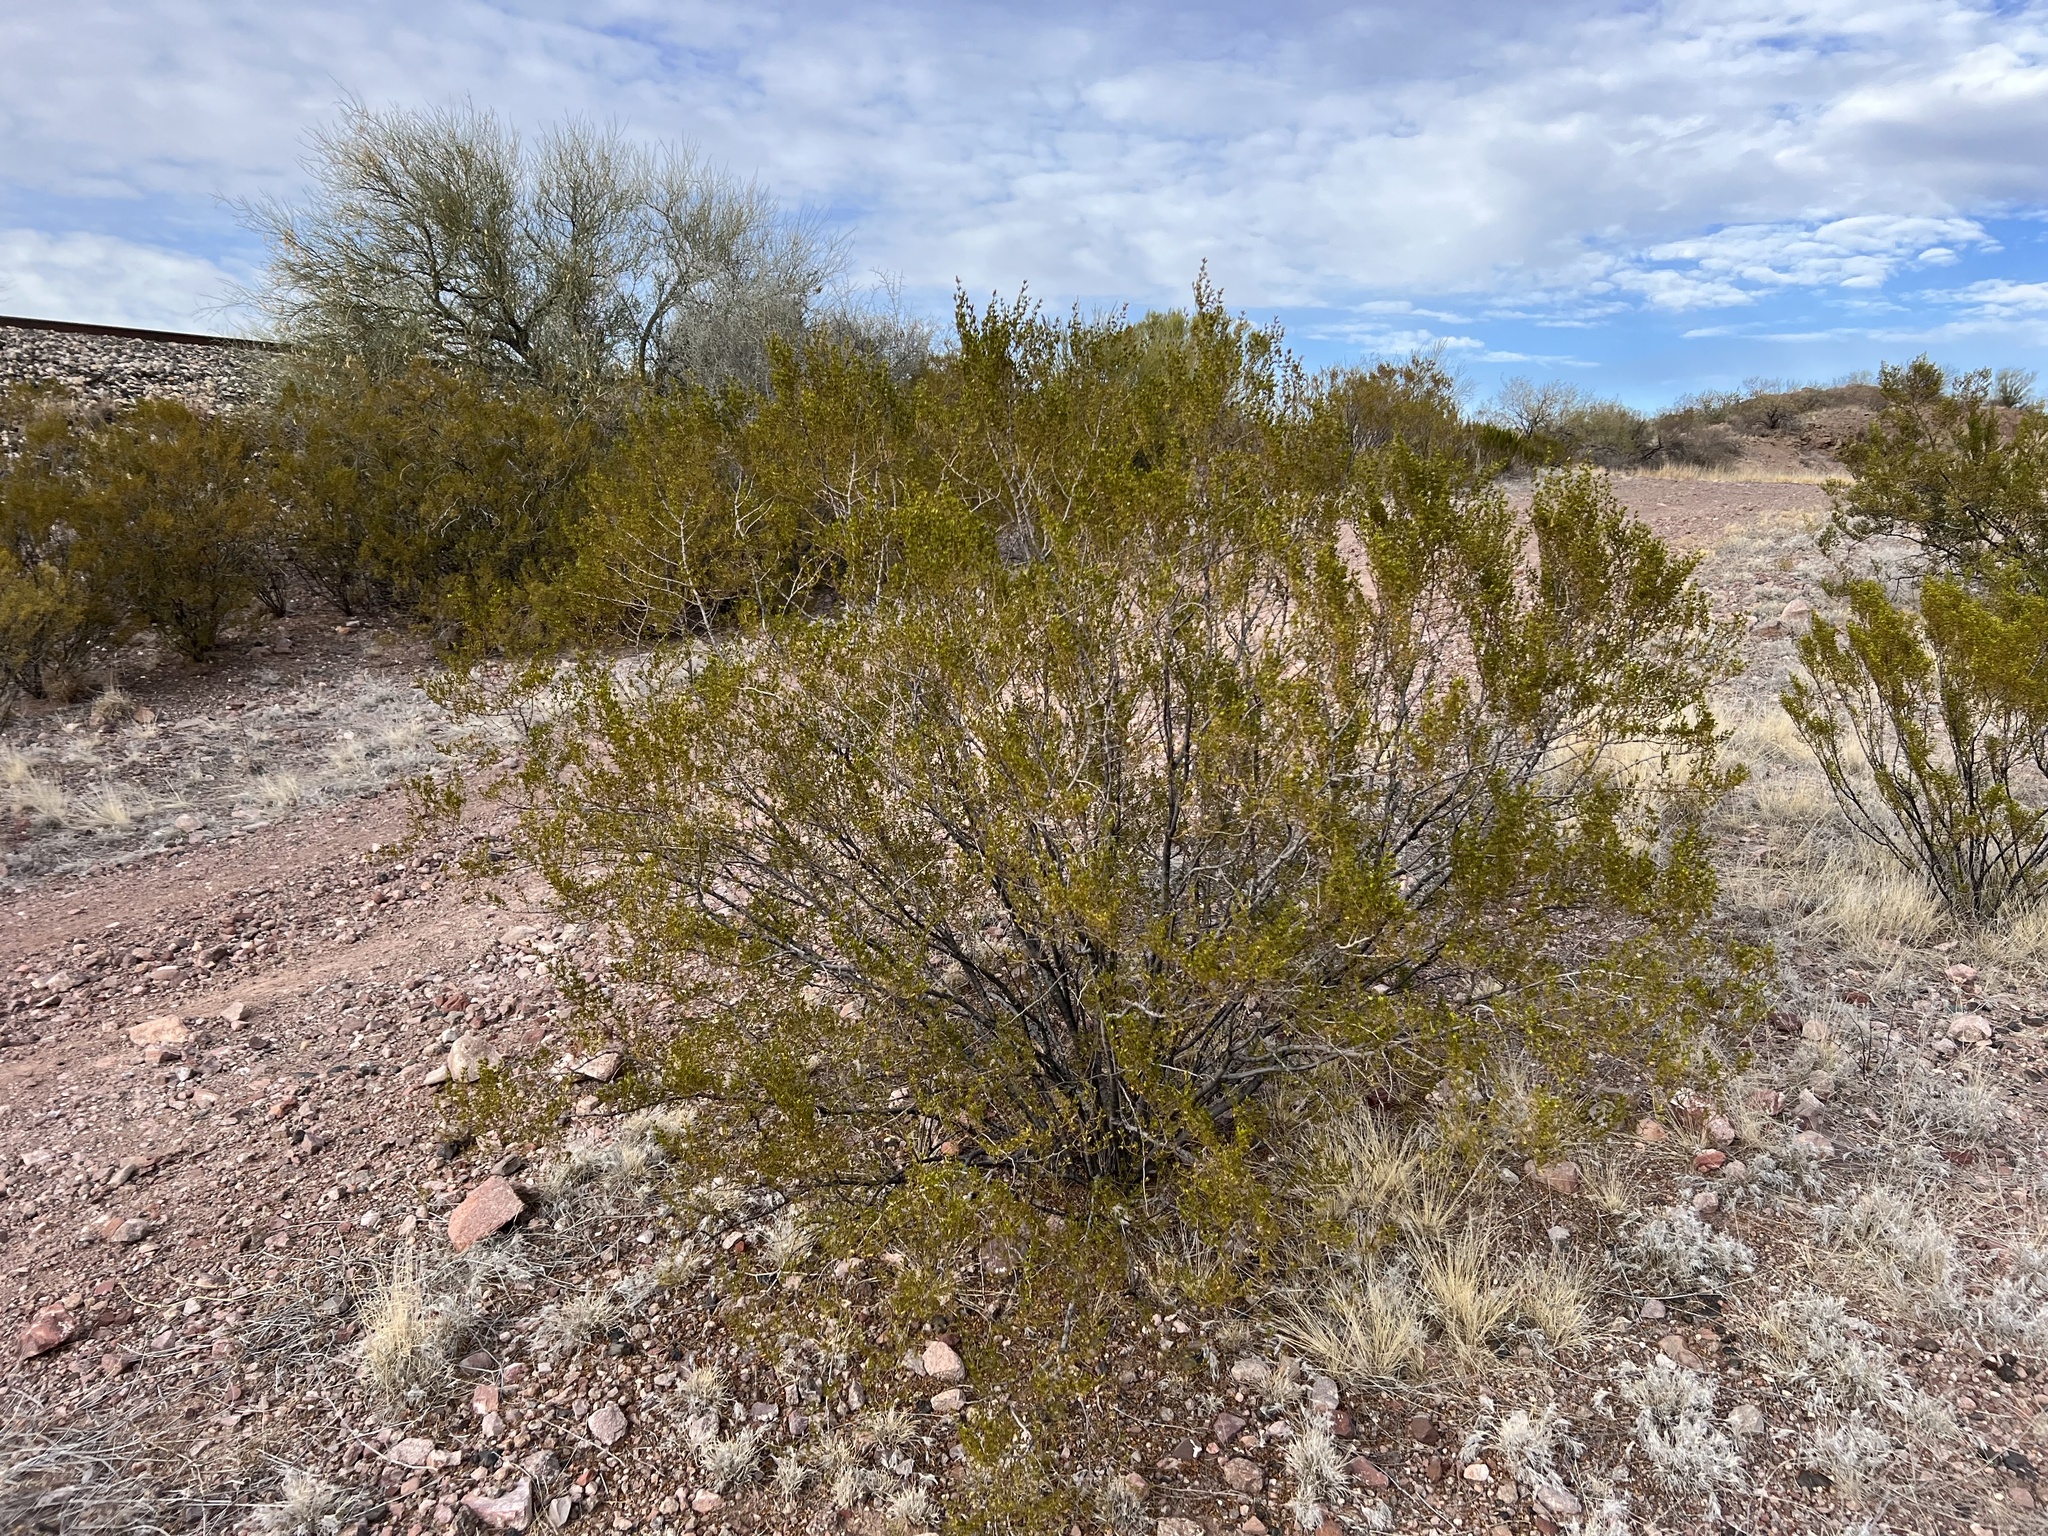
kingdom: Plantae
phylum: Tracheophyta
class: Magnoliopsida
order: Zygophyllales
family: Zygophyllaceae
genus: Larrea
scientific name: Larrea tridentata
